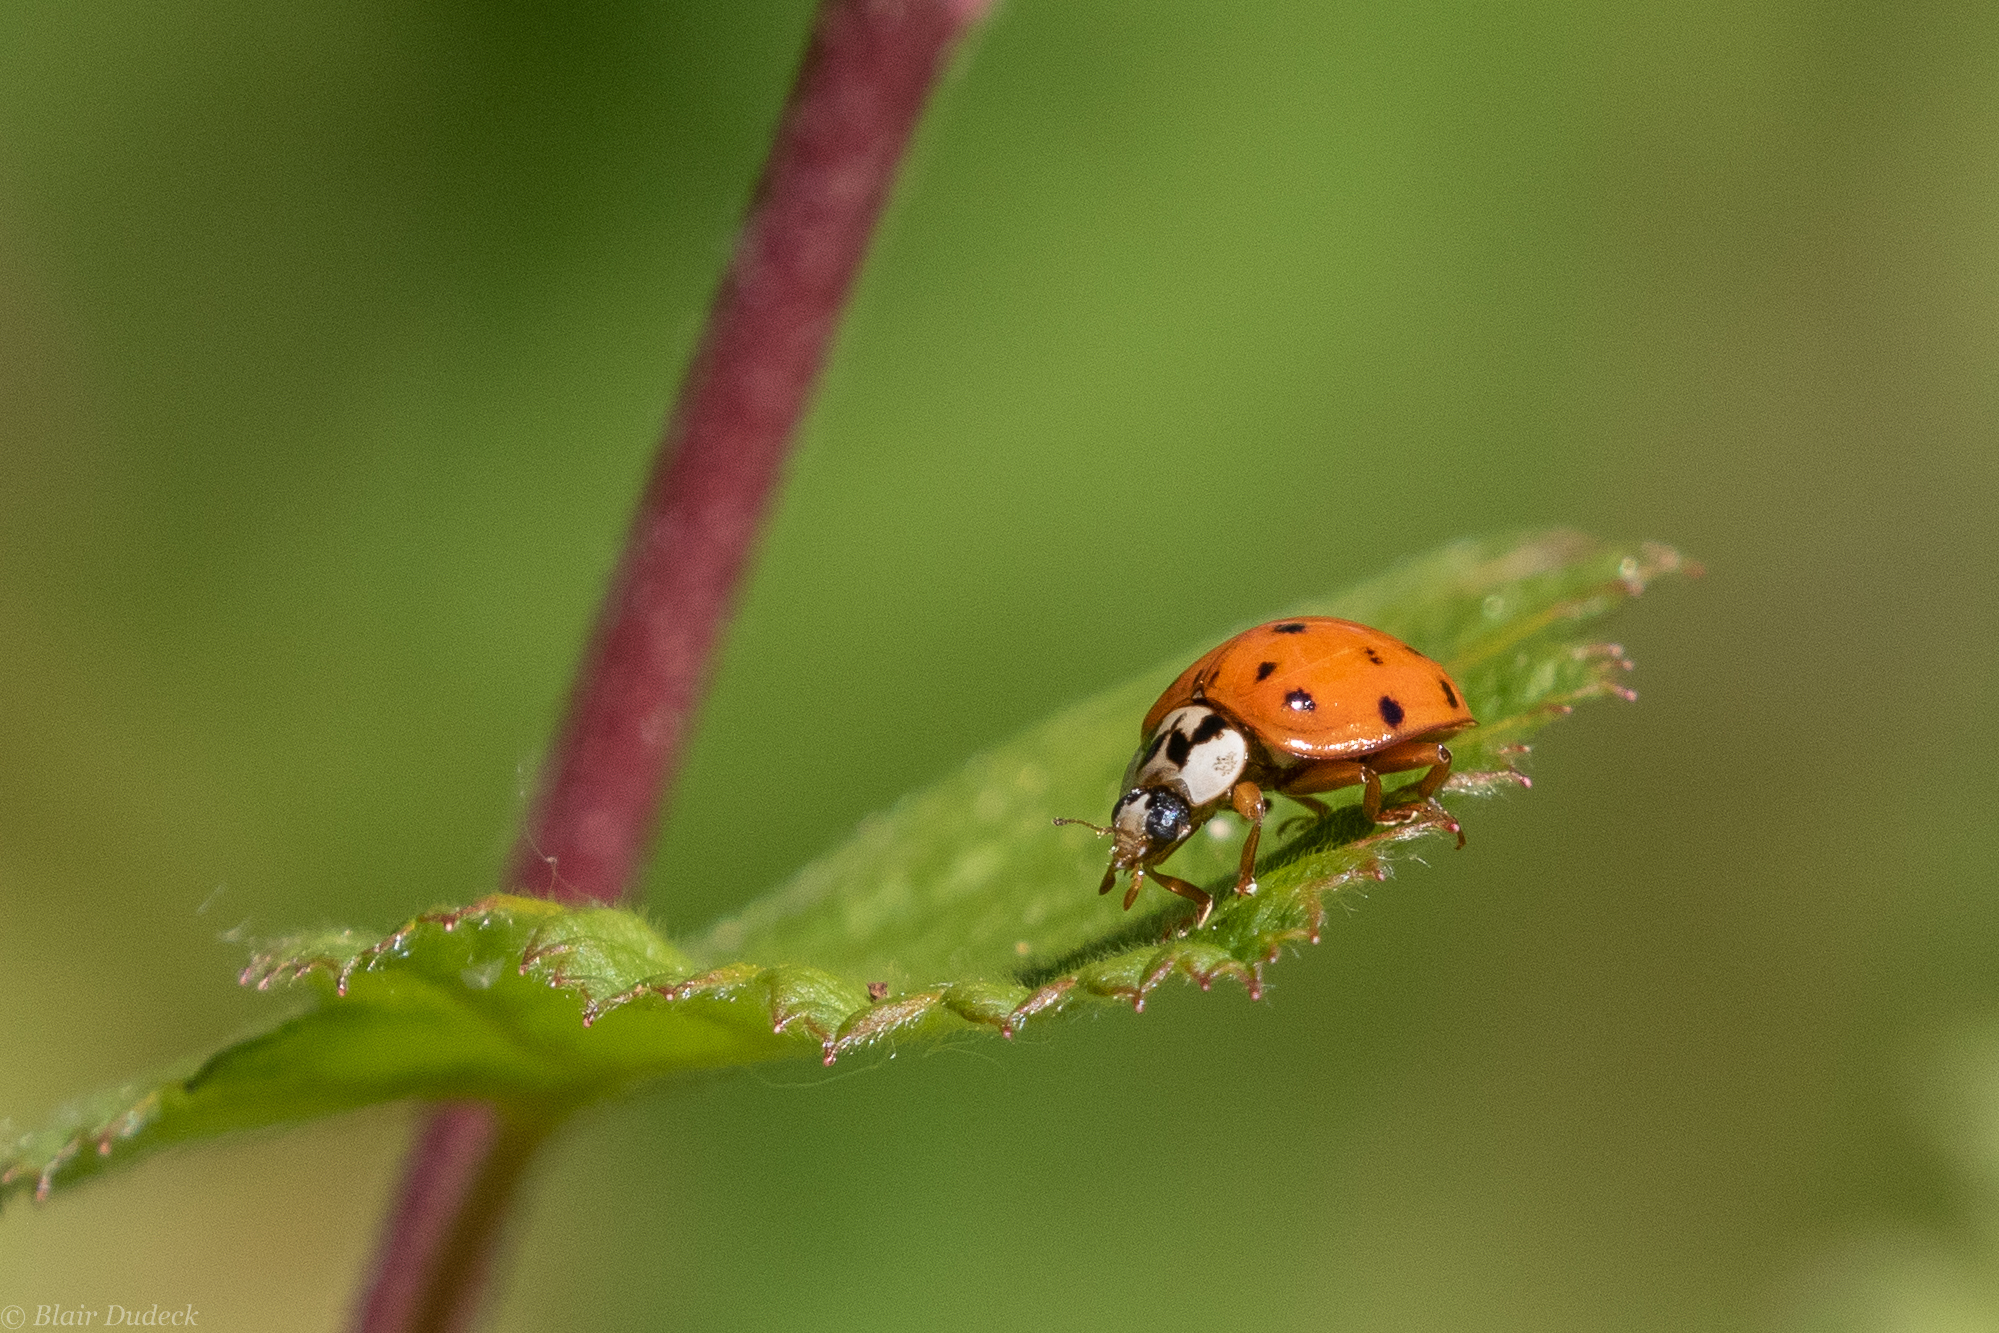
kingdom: Animalia
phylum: Arthropoda
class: Insecta
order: Coleoptera
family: Coccinellidae
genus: Harmonia
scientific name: Harmonia axyridis
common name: Harlequin ladybird
